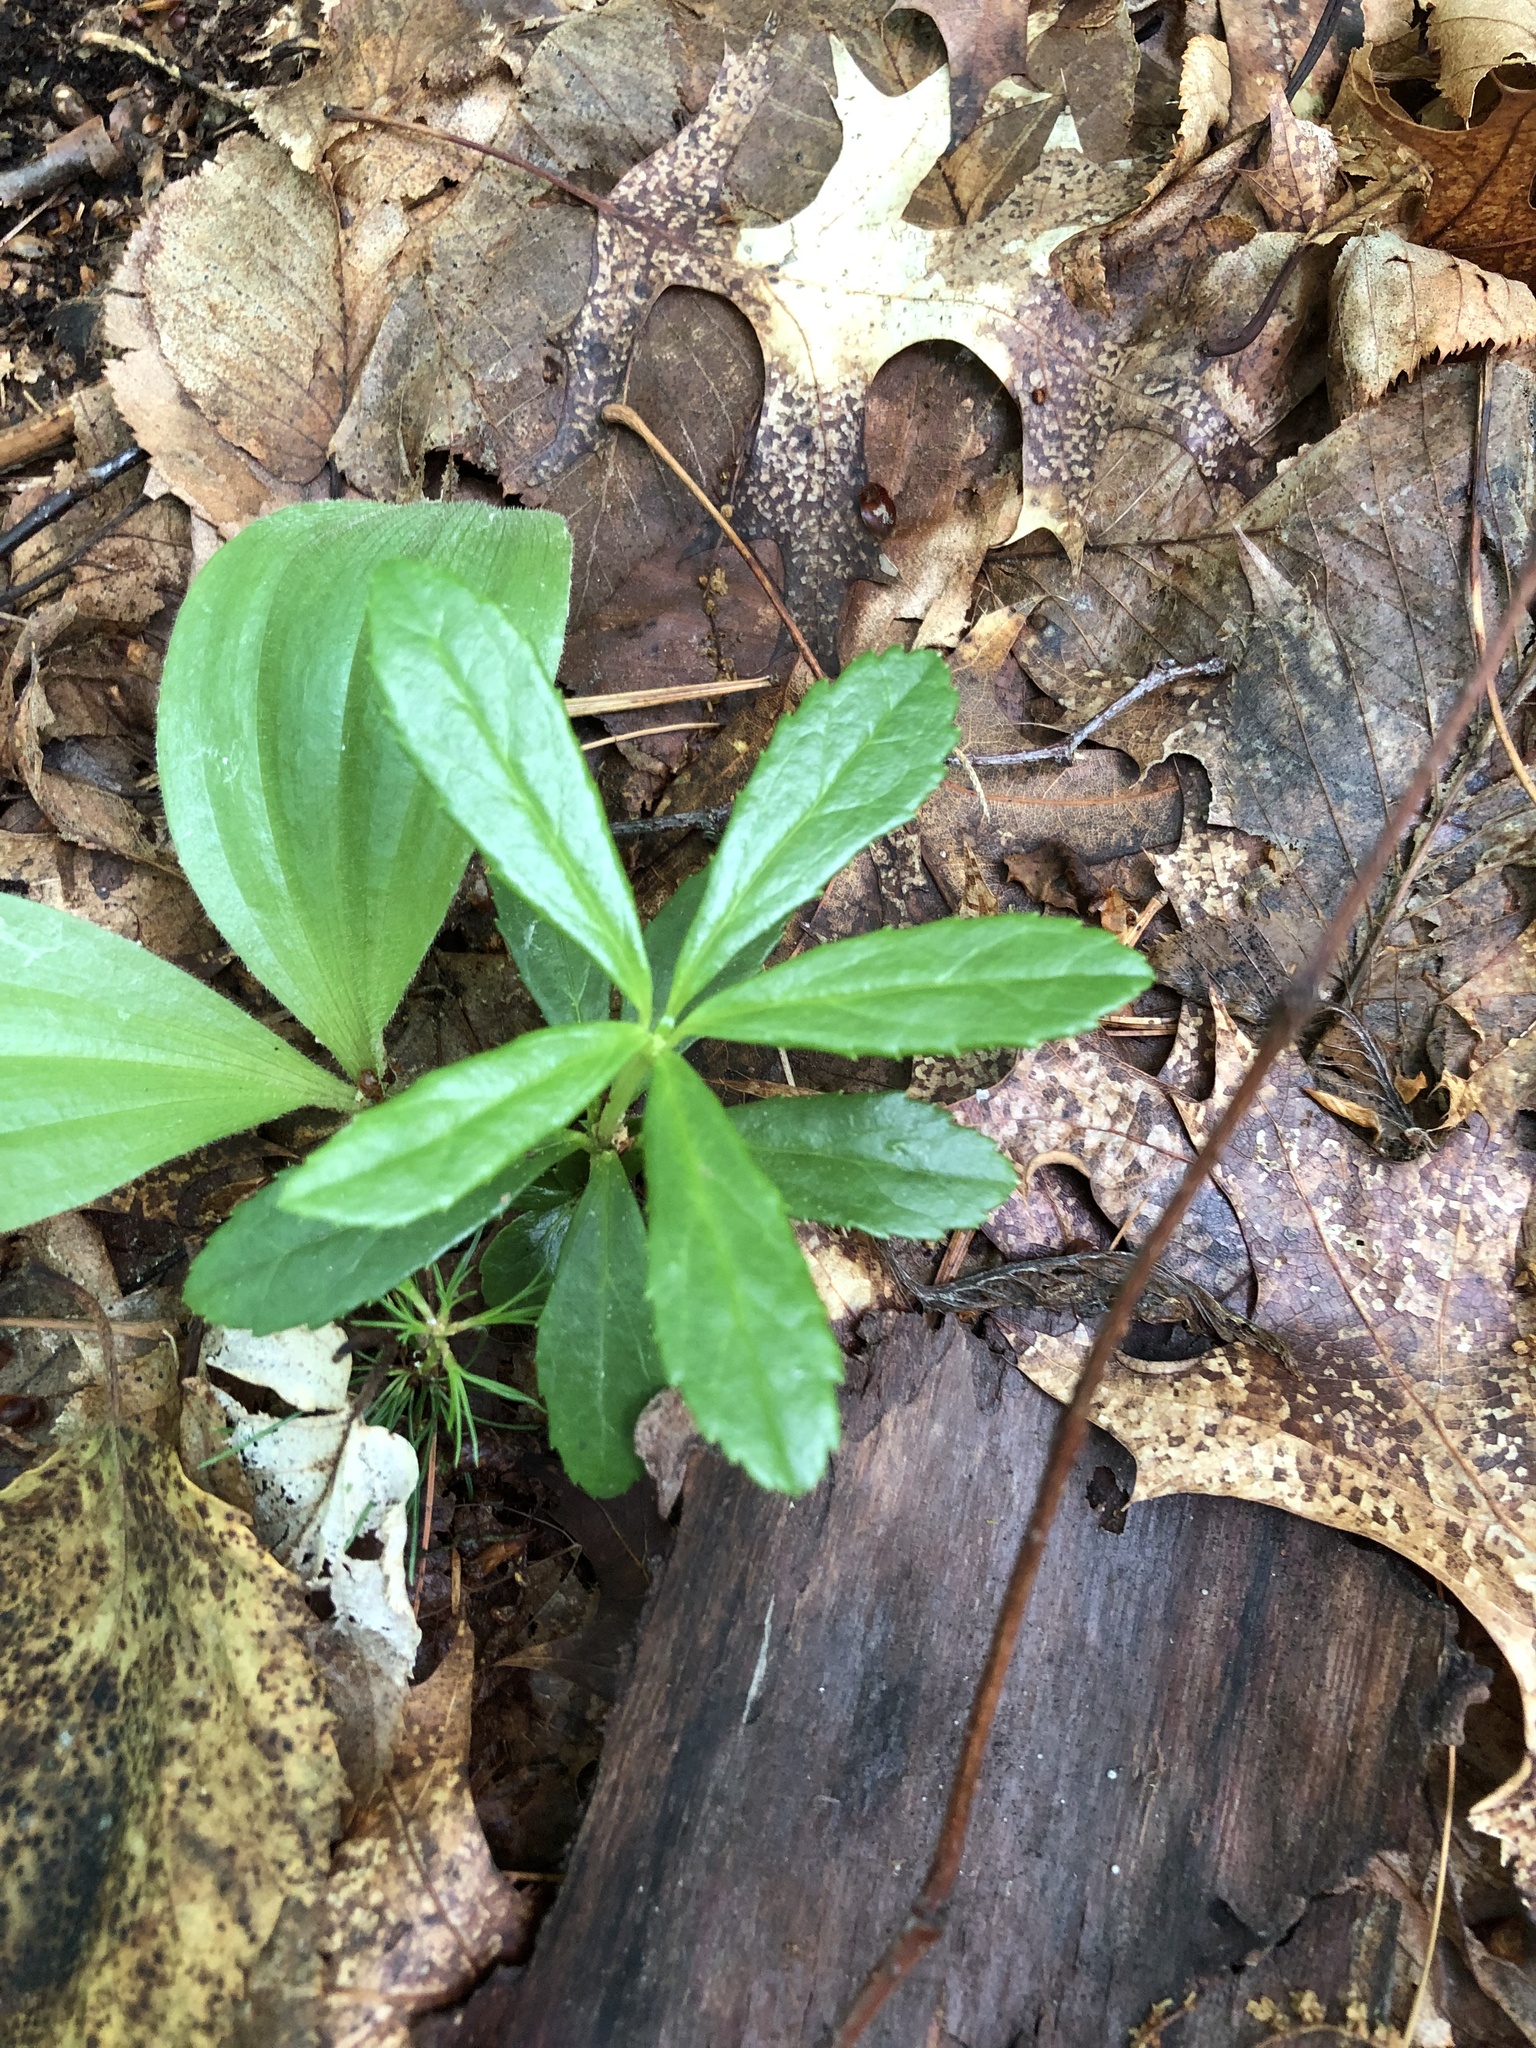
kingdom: Plantae
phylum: Tracheophyta
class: Magnoliopsida
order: Ericales
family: Ericaceae
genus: Chimaphila
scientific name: Chimaphila umbellata
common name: Pipsissewa
